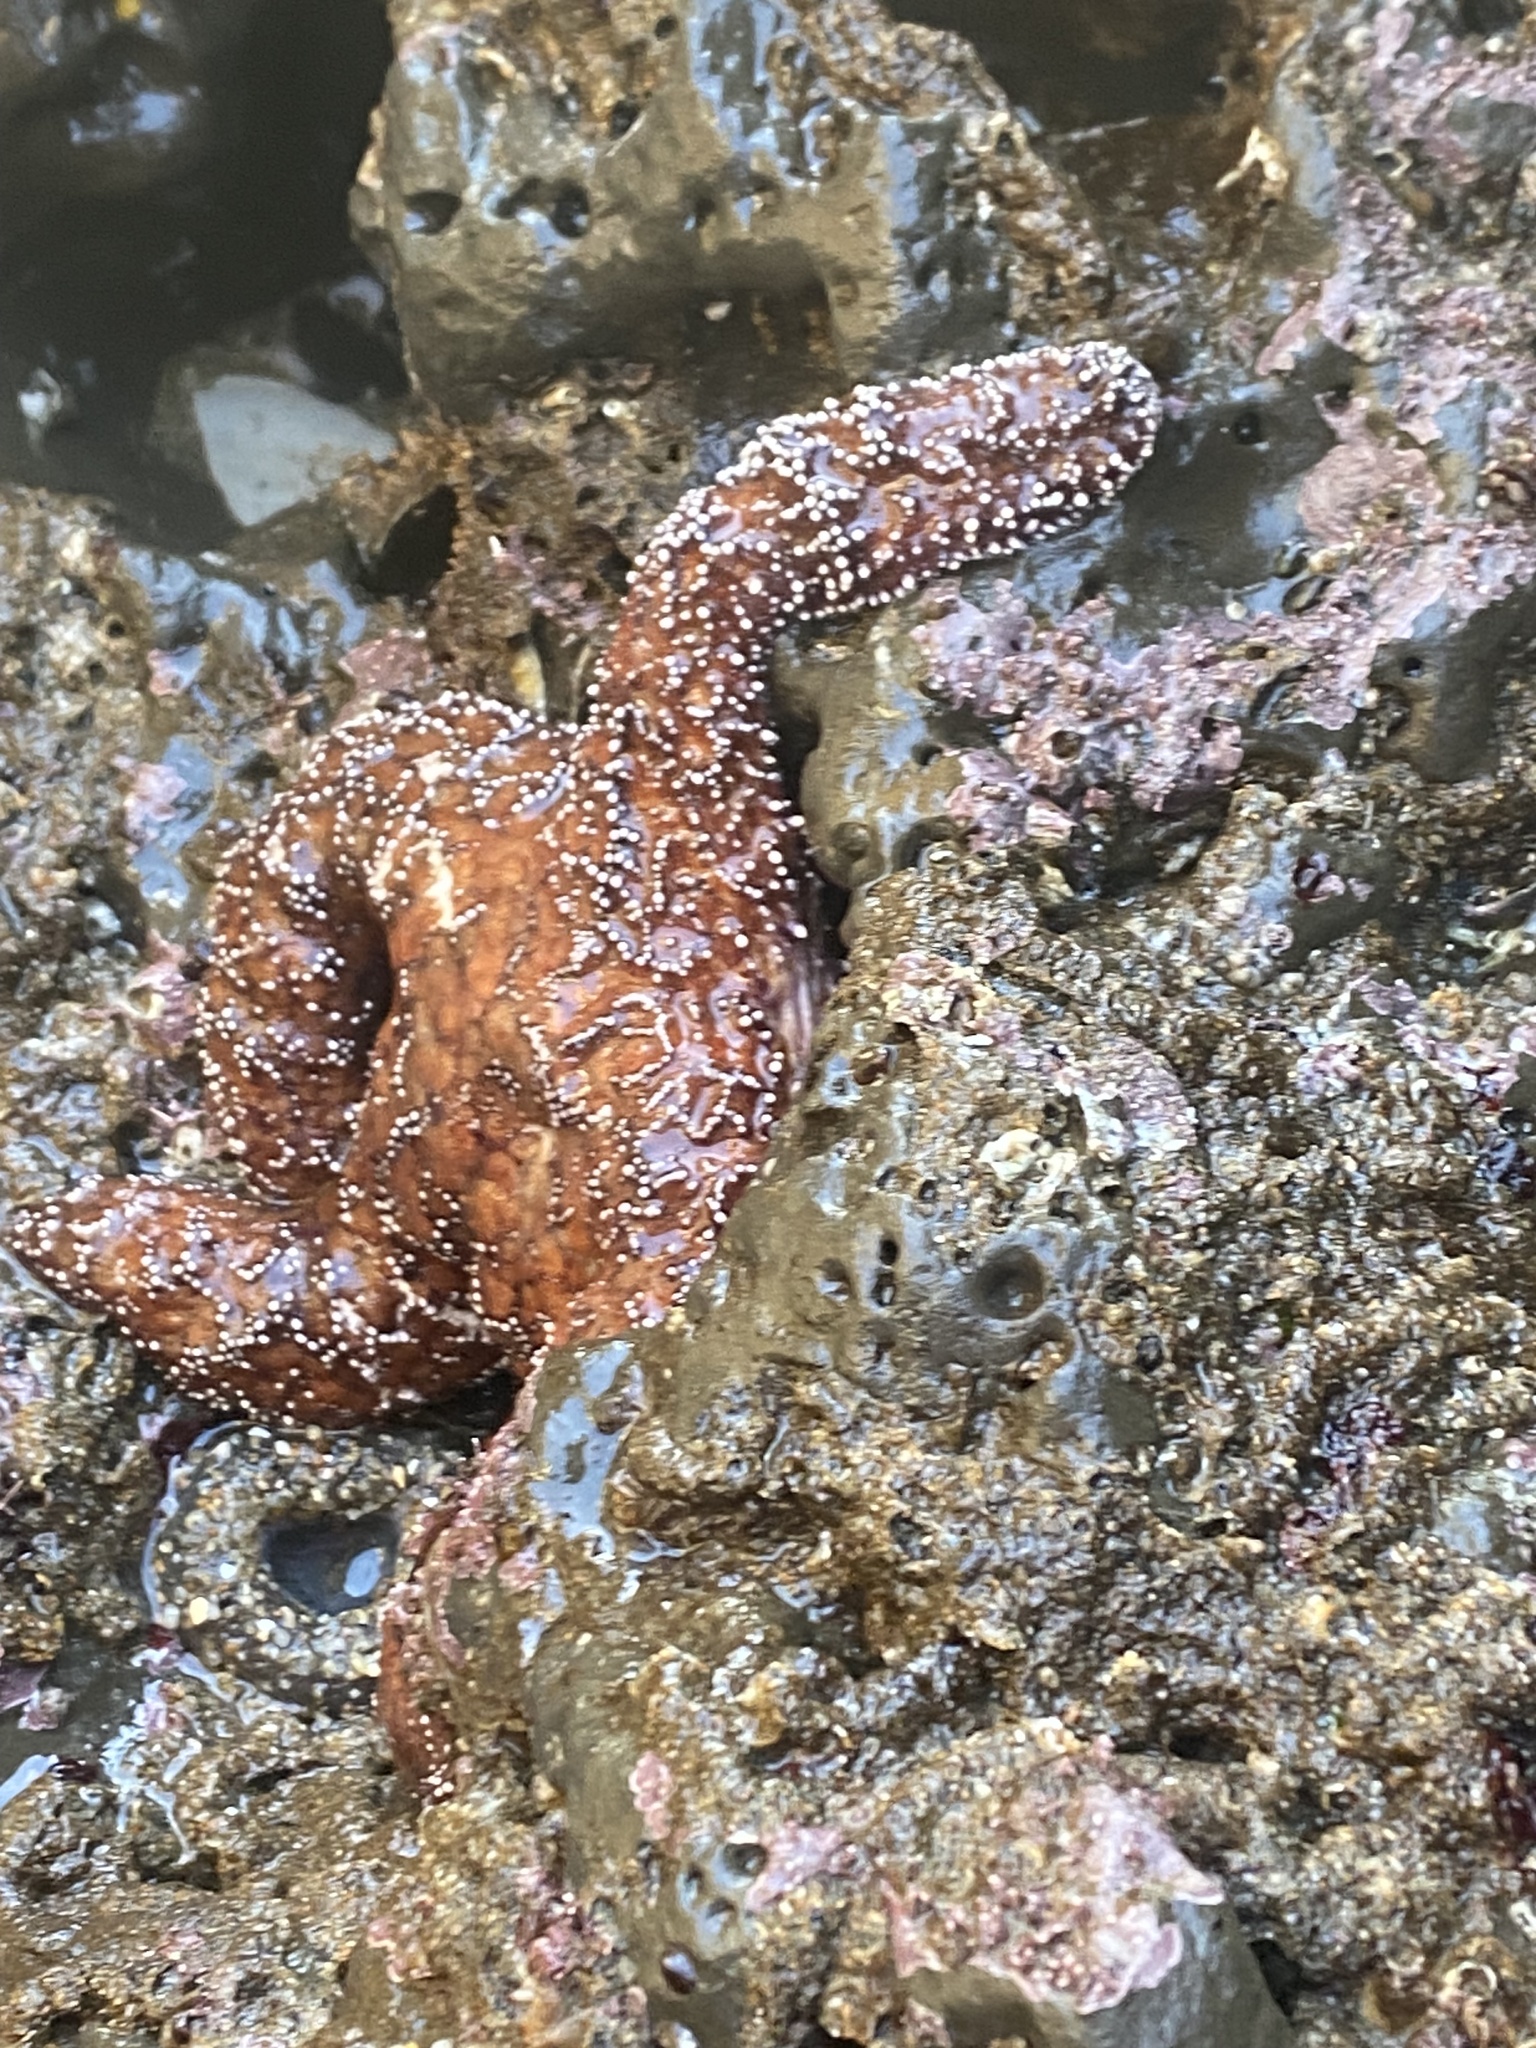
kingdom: Animalia
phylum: Echinodermata
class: Asteroidea
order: Forcipulatida
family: Asteriidae
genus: Pisaster
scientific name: Pisaster ochraceus
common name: Ochre stars
